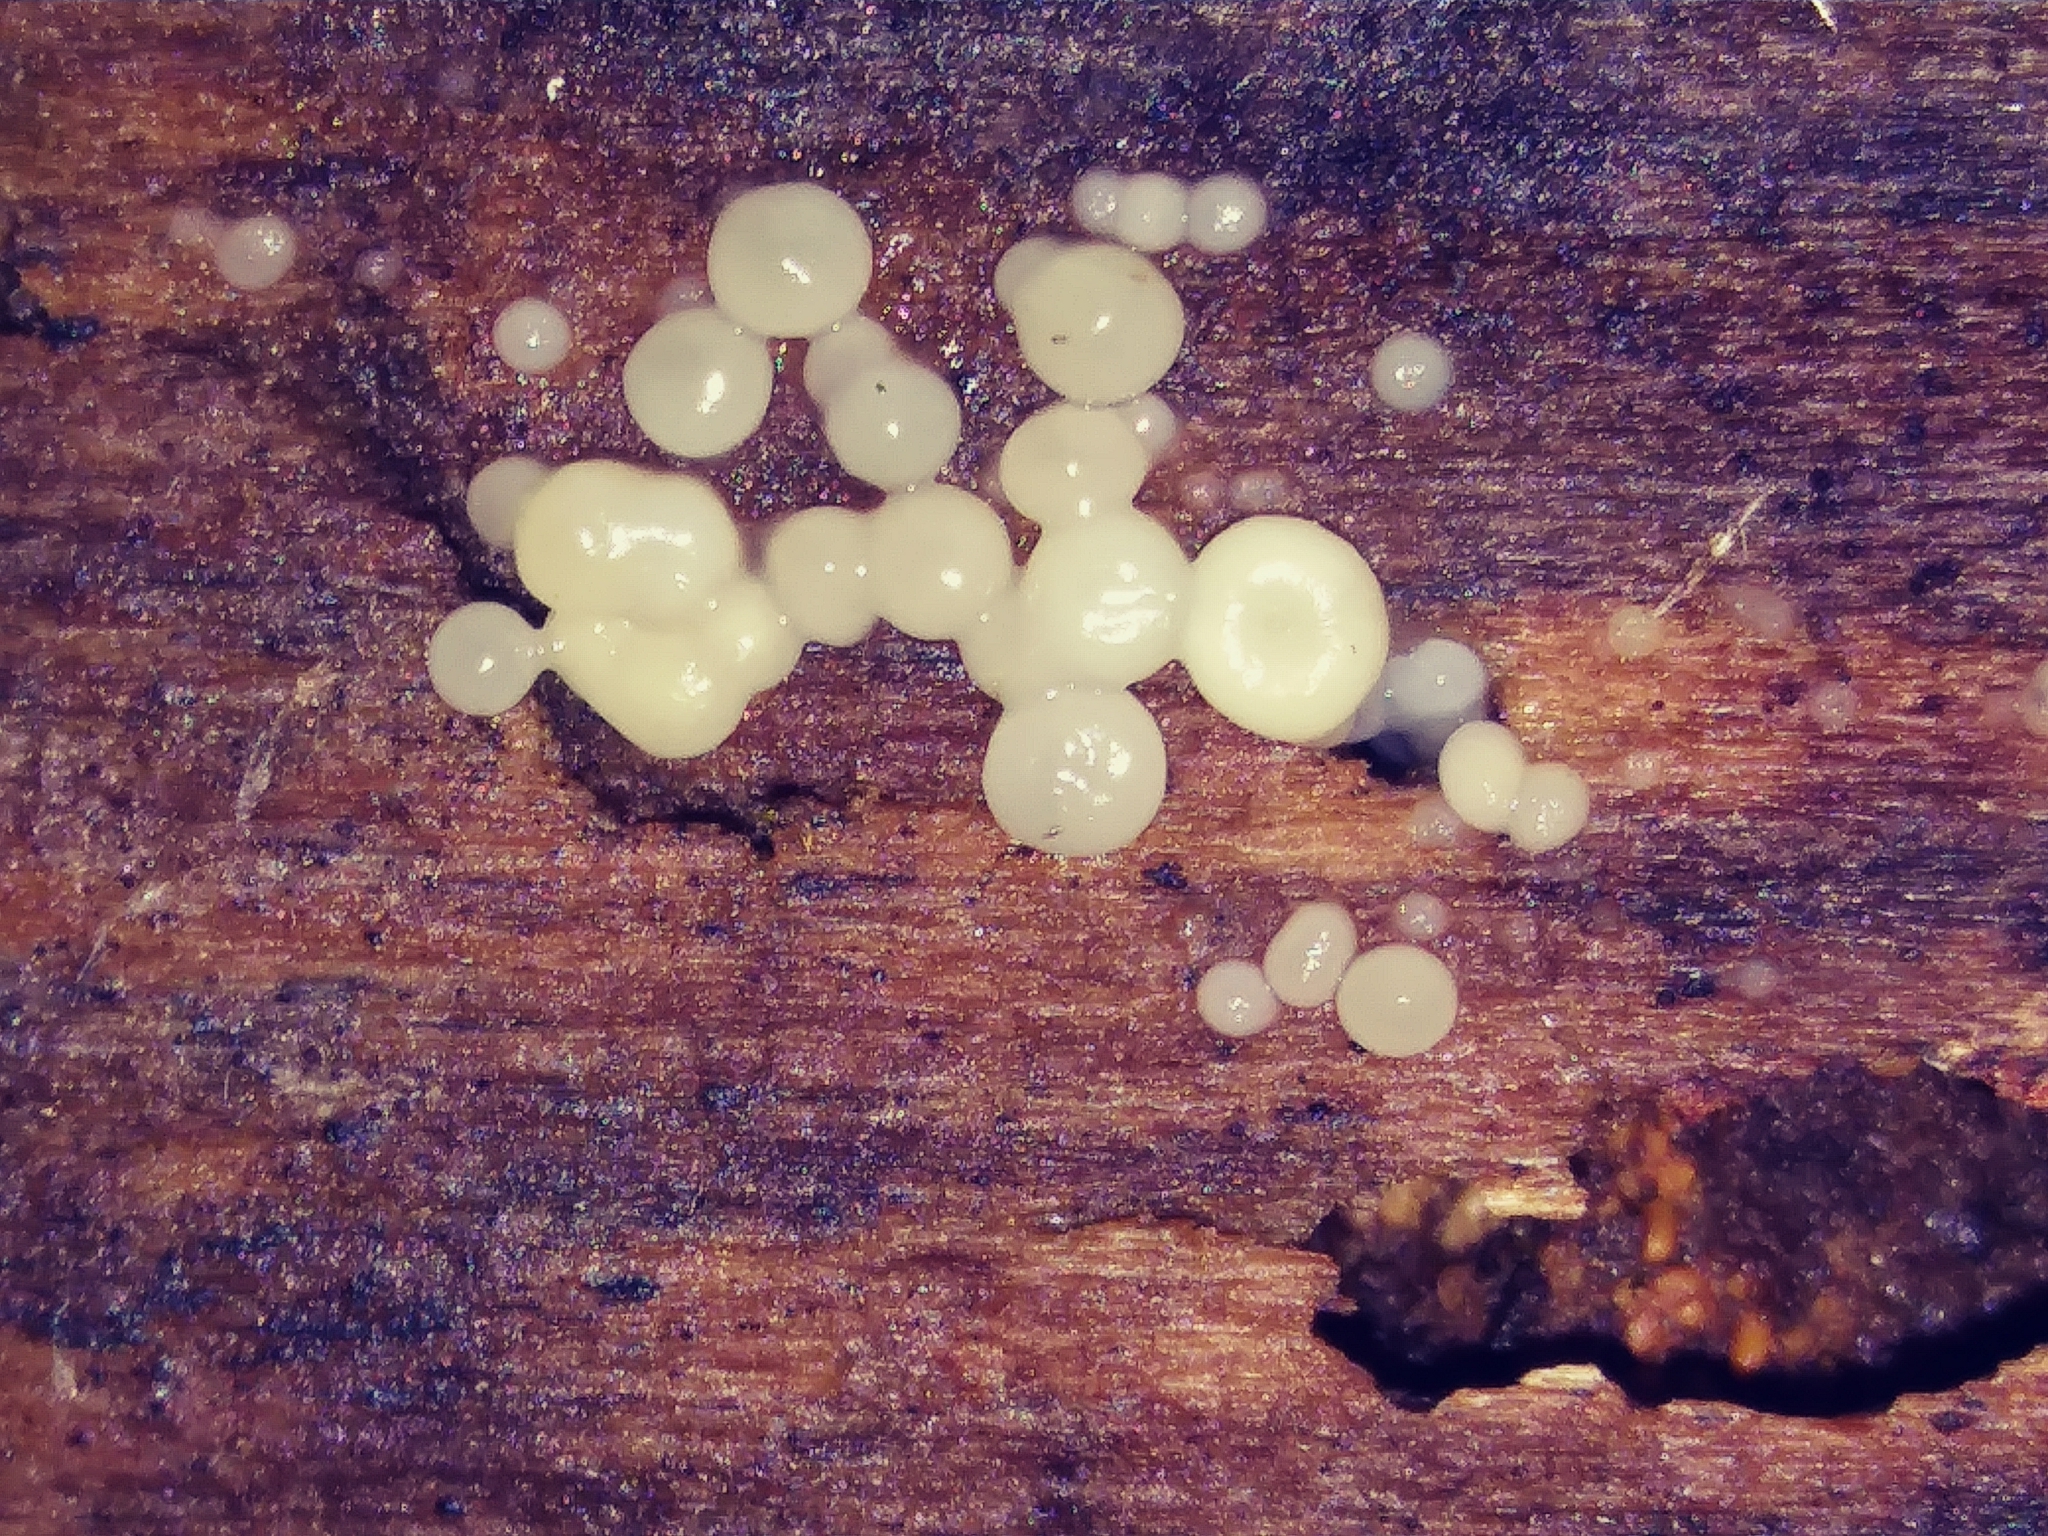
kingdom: Fungi
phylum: Basidiomycota
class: Atractiellomycetes
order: Atractiellales
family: Phleogenaceae
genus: Helicogloea
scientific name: Helicogloea compressa
